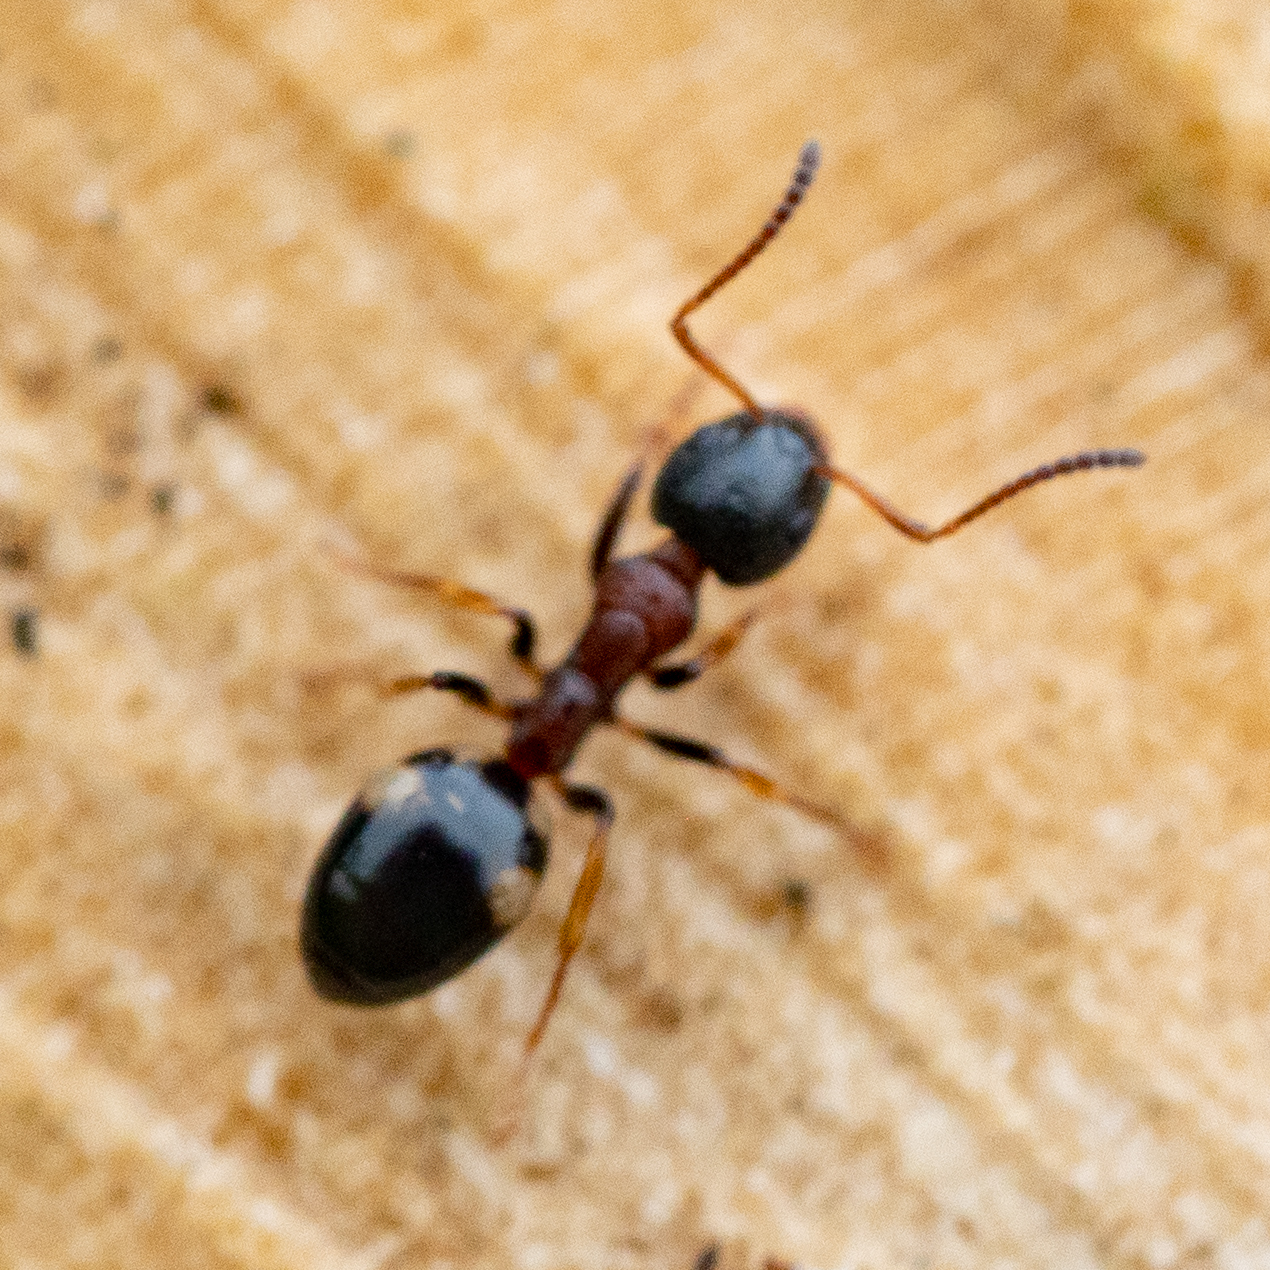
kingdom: Animalia
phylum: Arthropoda
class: Insecta
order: Hymenoptera
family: Formicidae
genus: Dolichoderus
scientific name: Dolichoderus quadripunctatus
